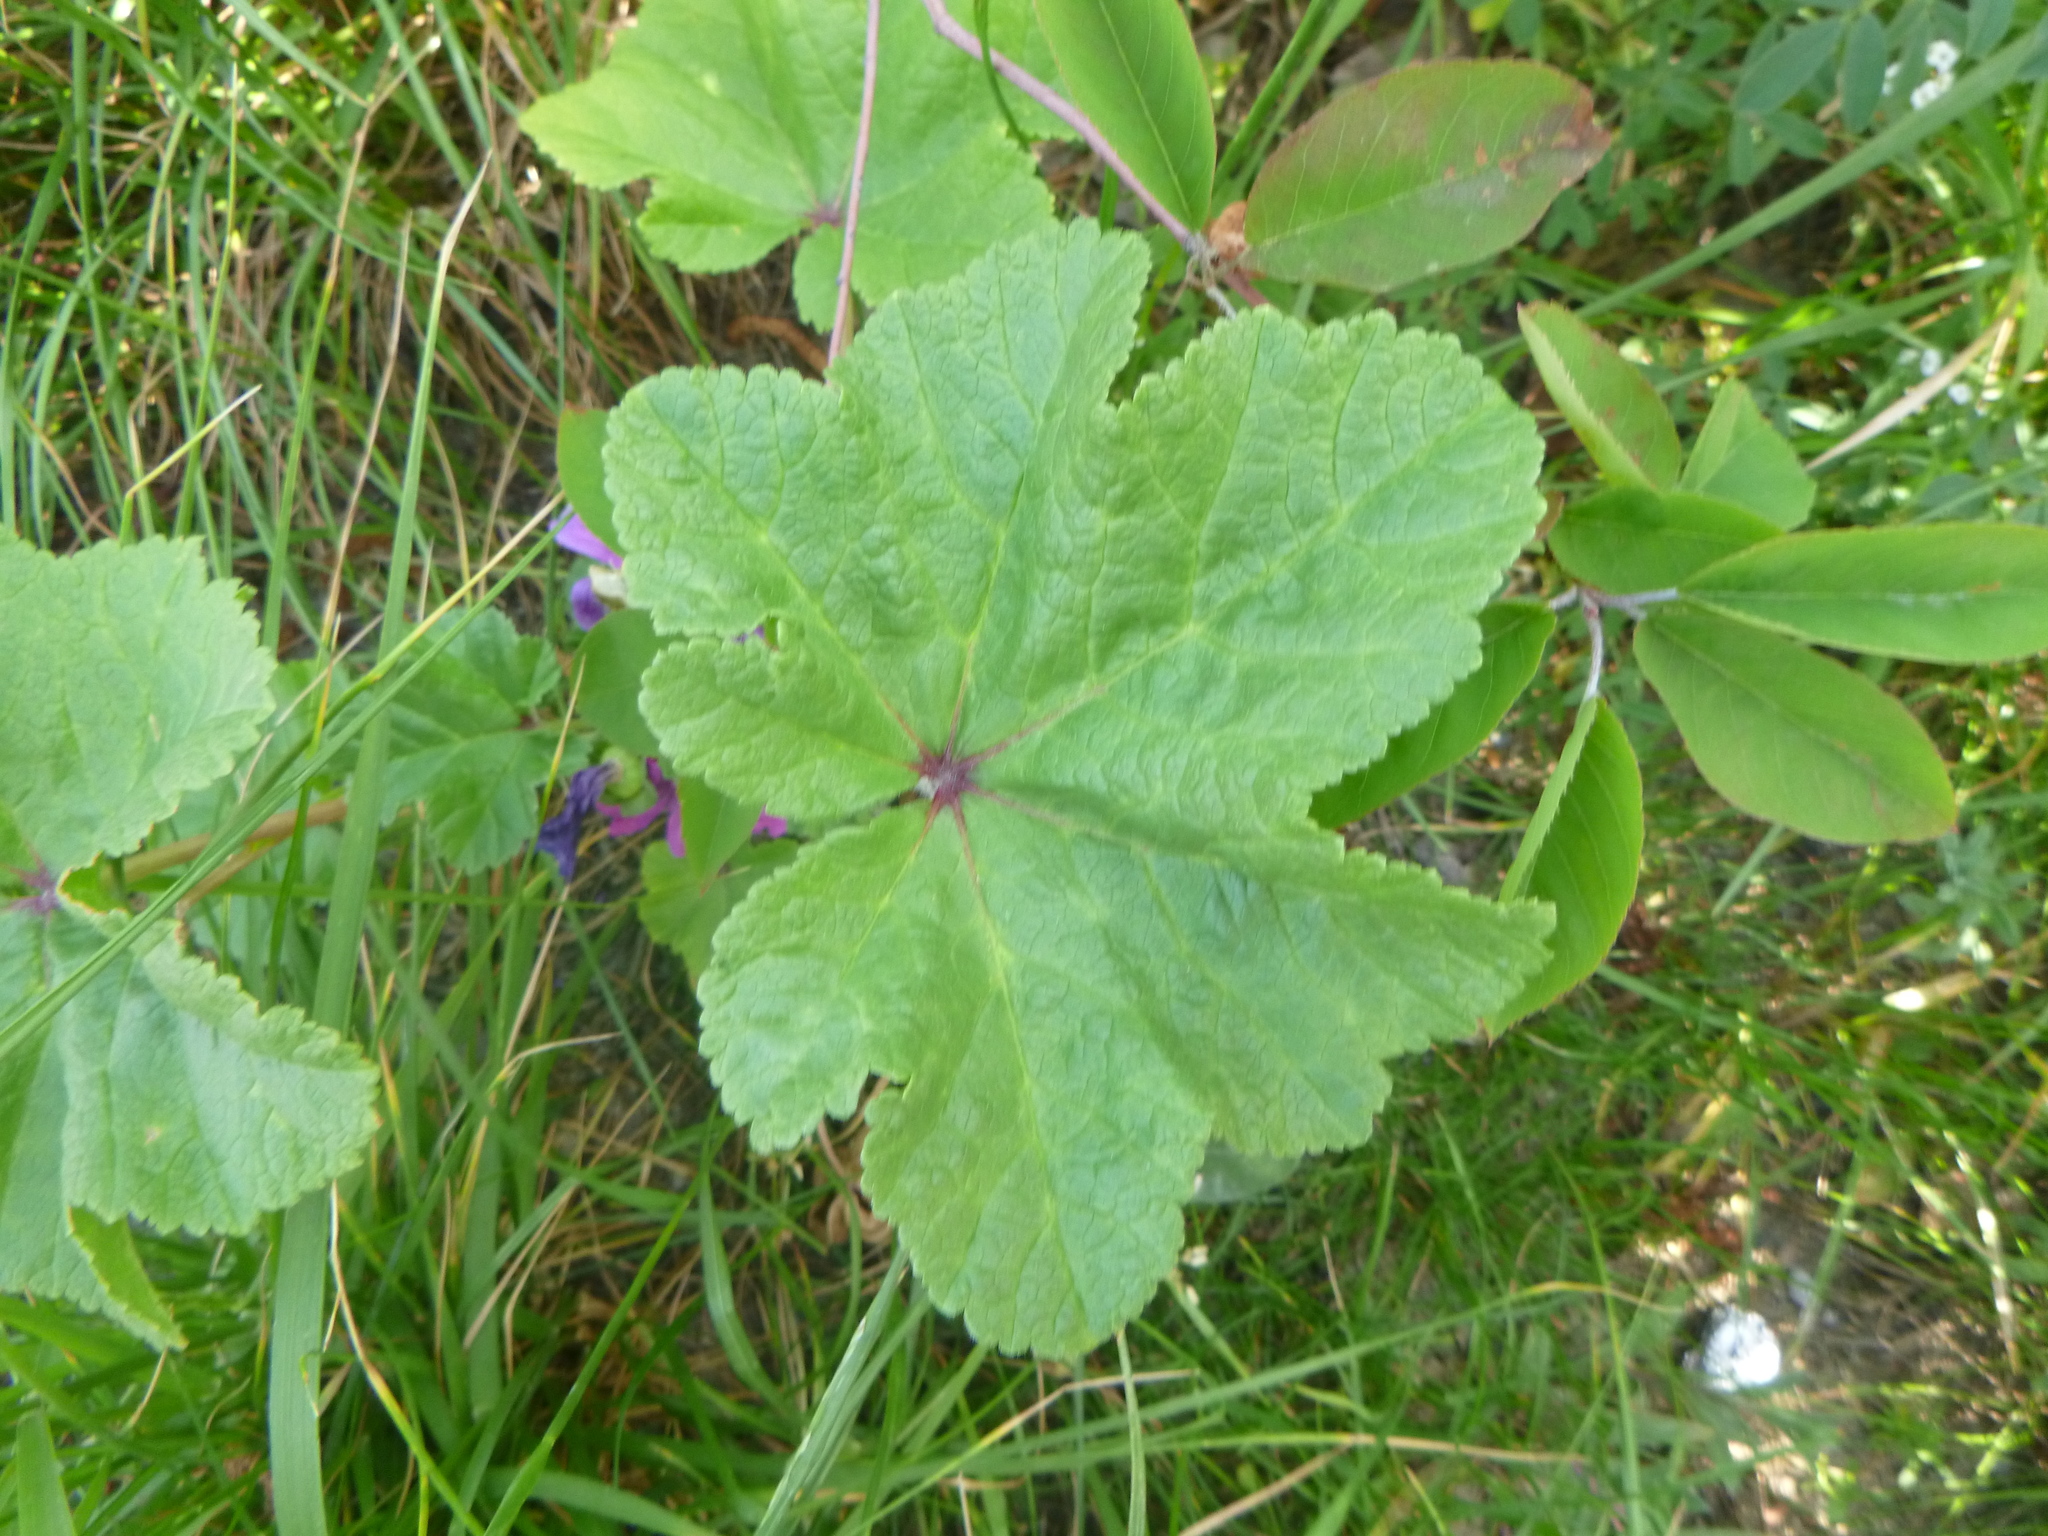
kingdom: Plantae
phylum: Tracheophyta
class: Magnoliopsida
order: Malvales
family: Malvaceae
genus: Malva
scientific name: Malva sylvestris
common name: Common mallow
